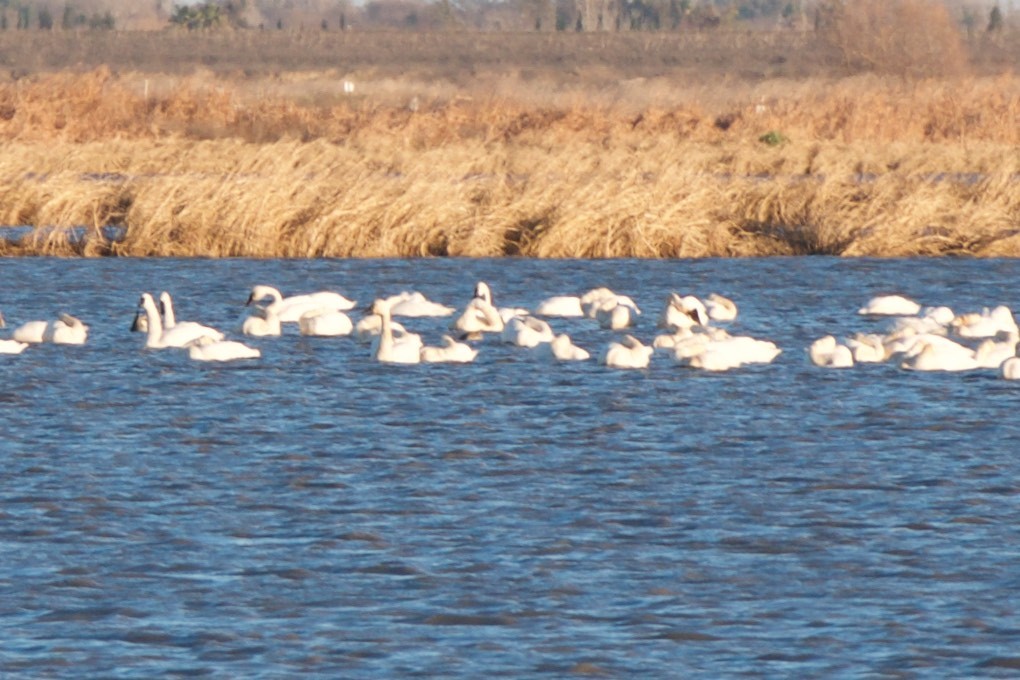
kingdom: Animalia
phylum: Chordata
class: Aves
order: Anseriformes
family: Anatidae
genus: Cygnus
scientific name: Cygnus columbianus
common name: Tundra swan
